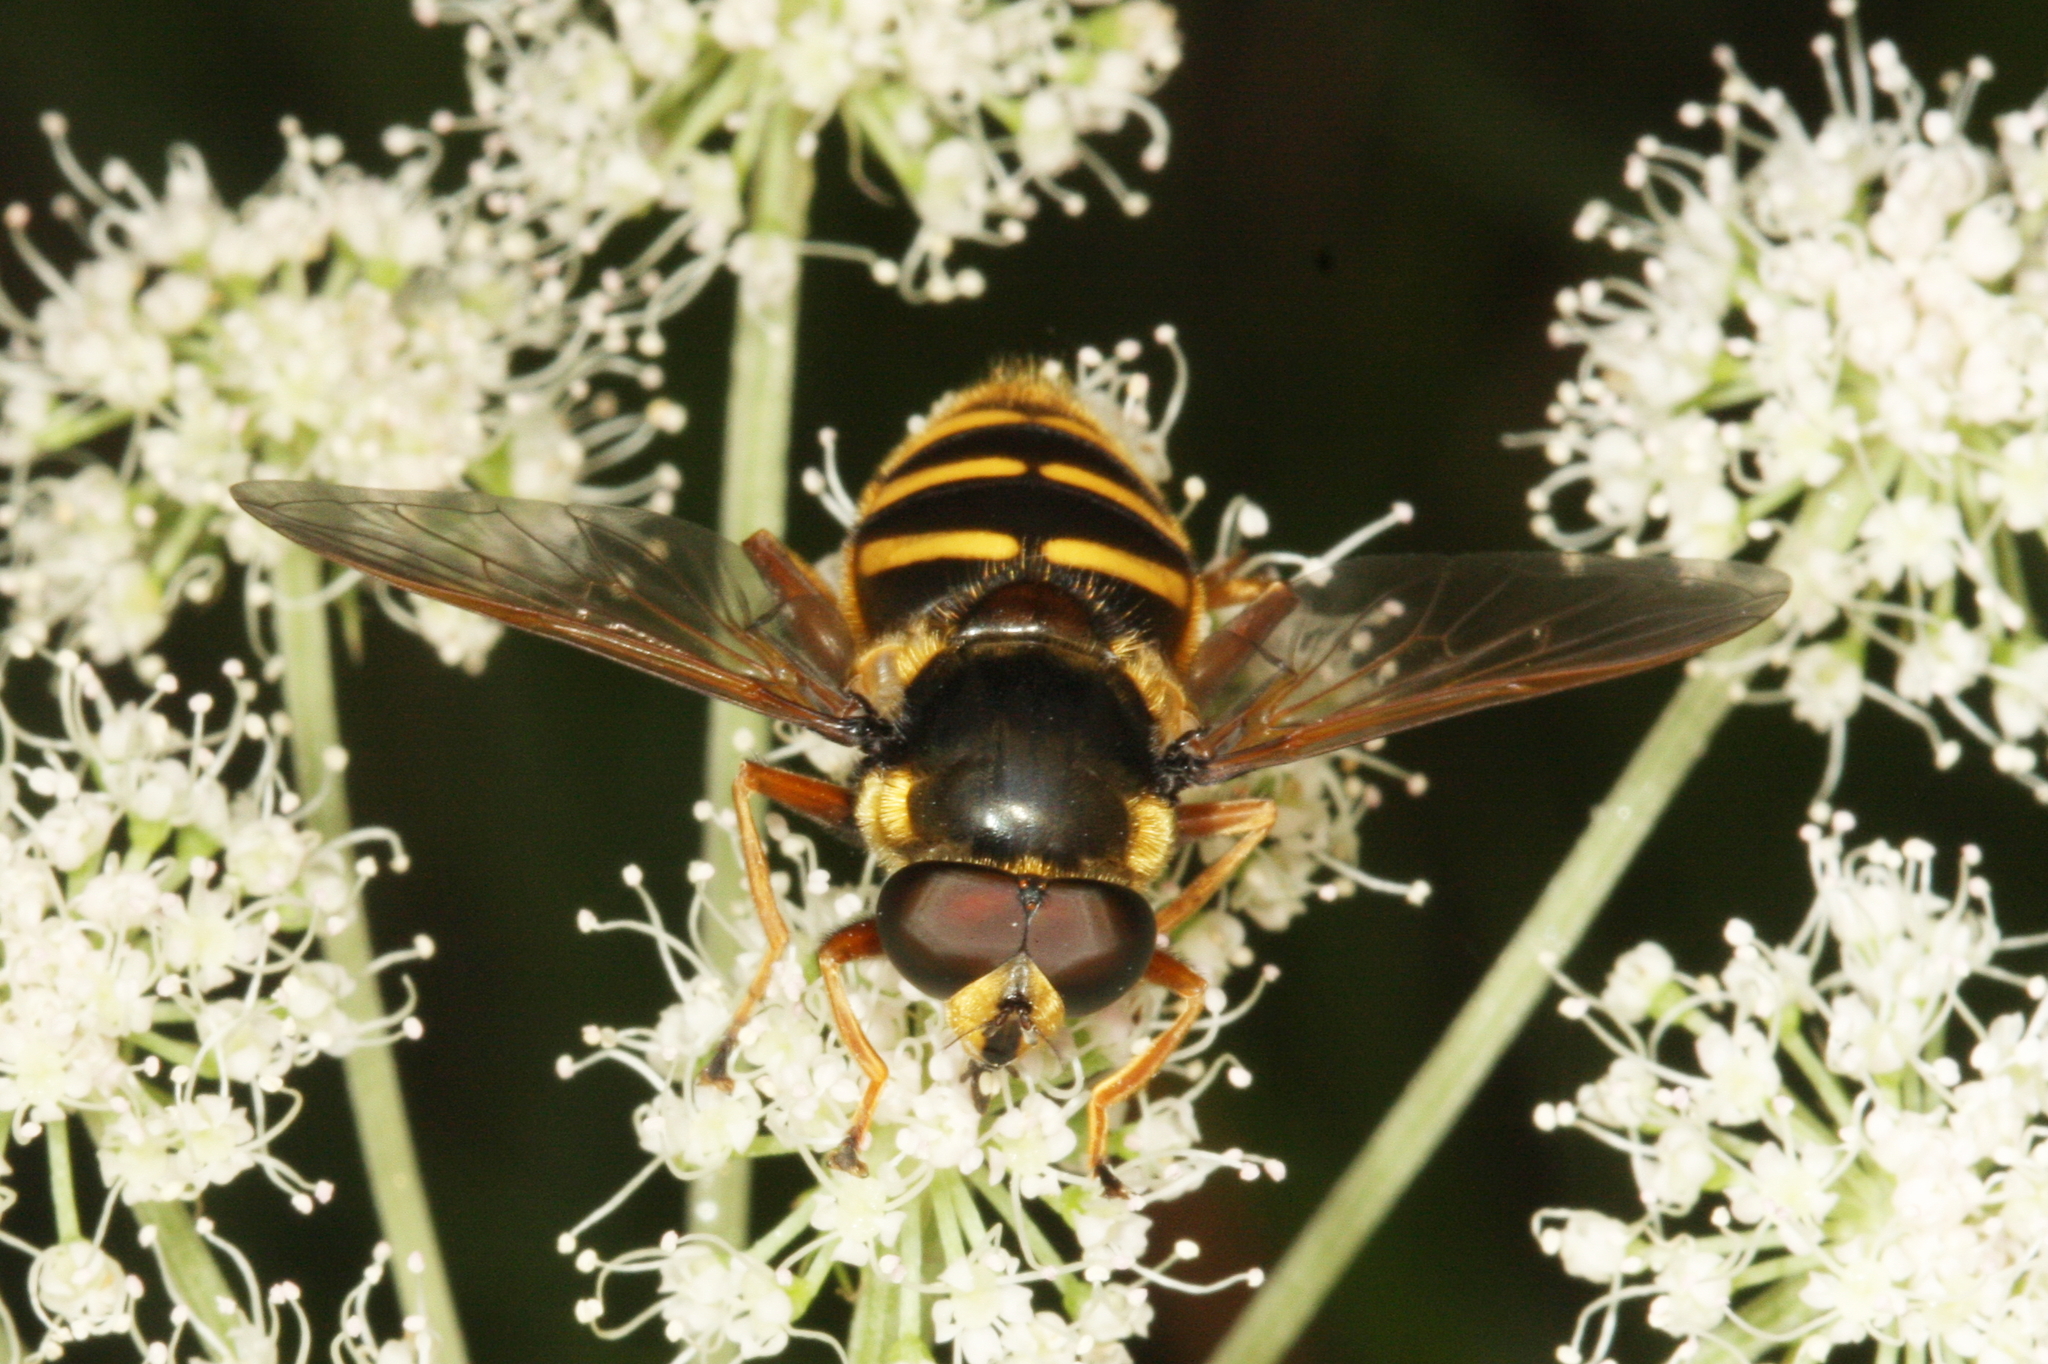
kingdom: Animalia
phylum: Arthropoda
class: Insecta
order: Diptera
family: Syrphidae
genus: Sericomyia
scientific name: Sericomyia silentis
